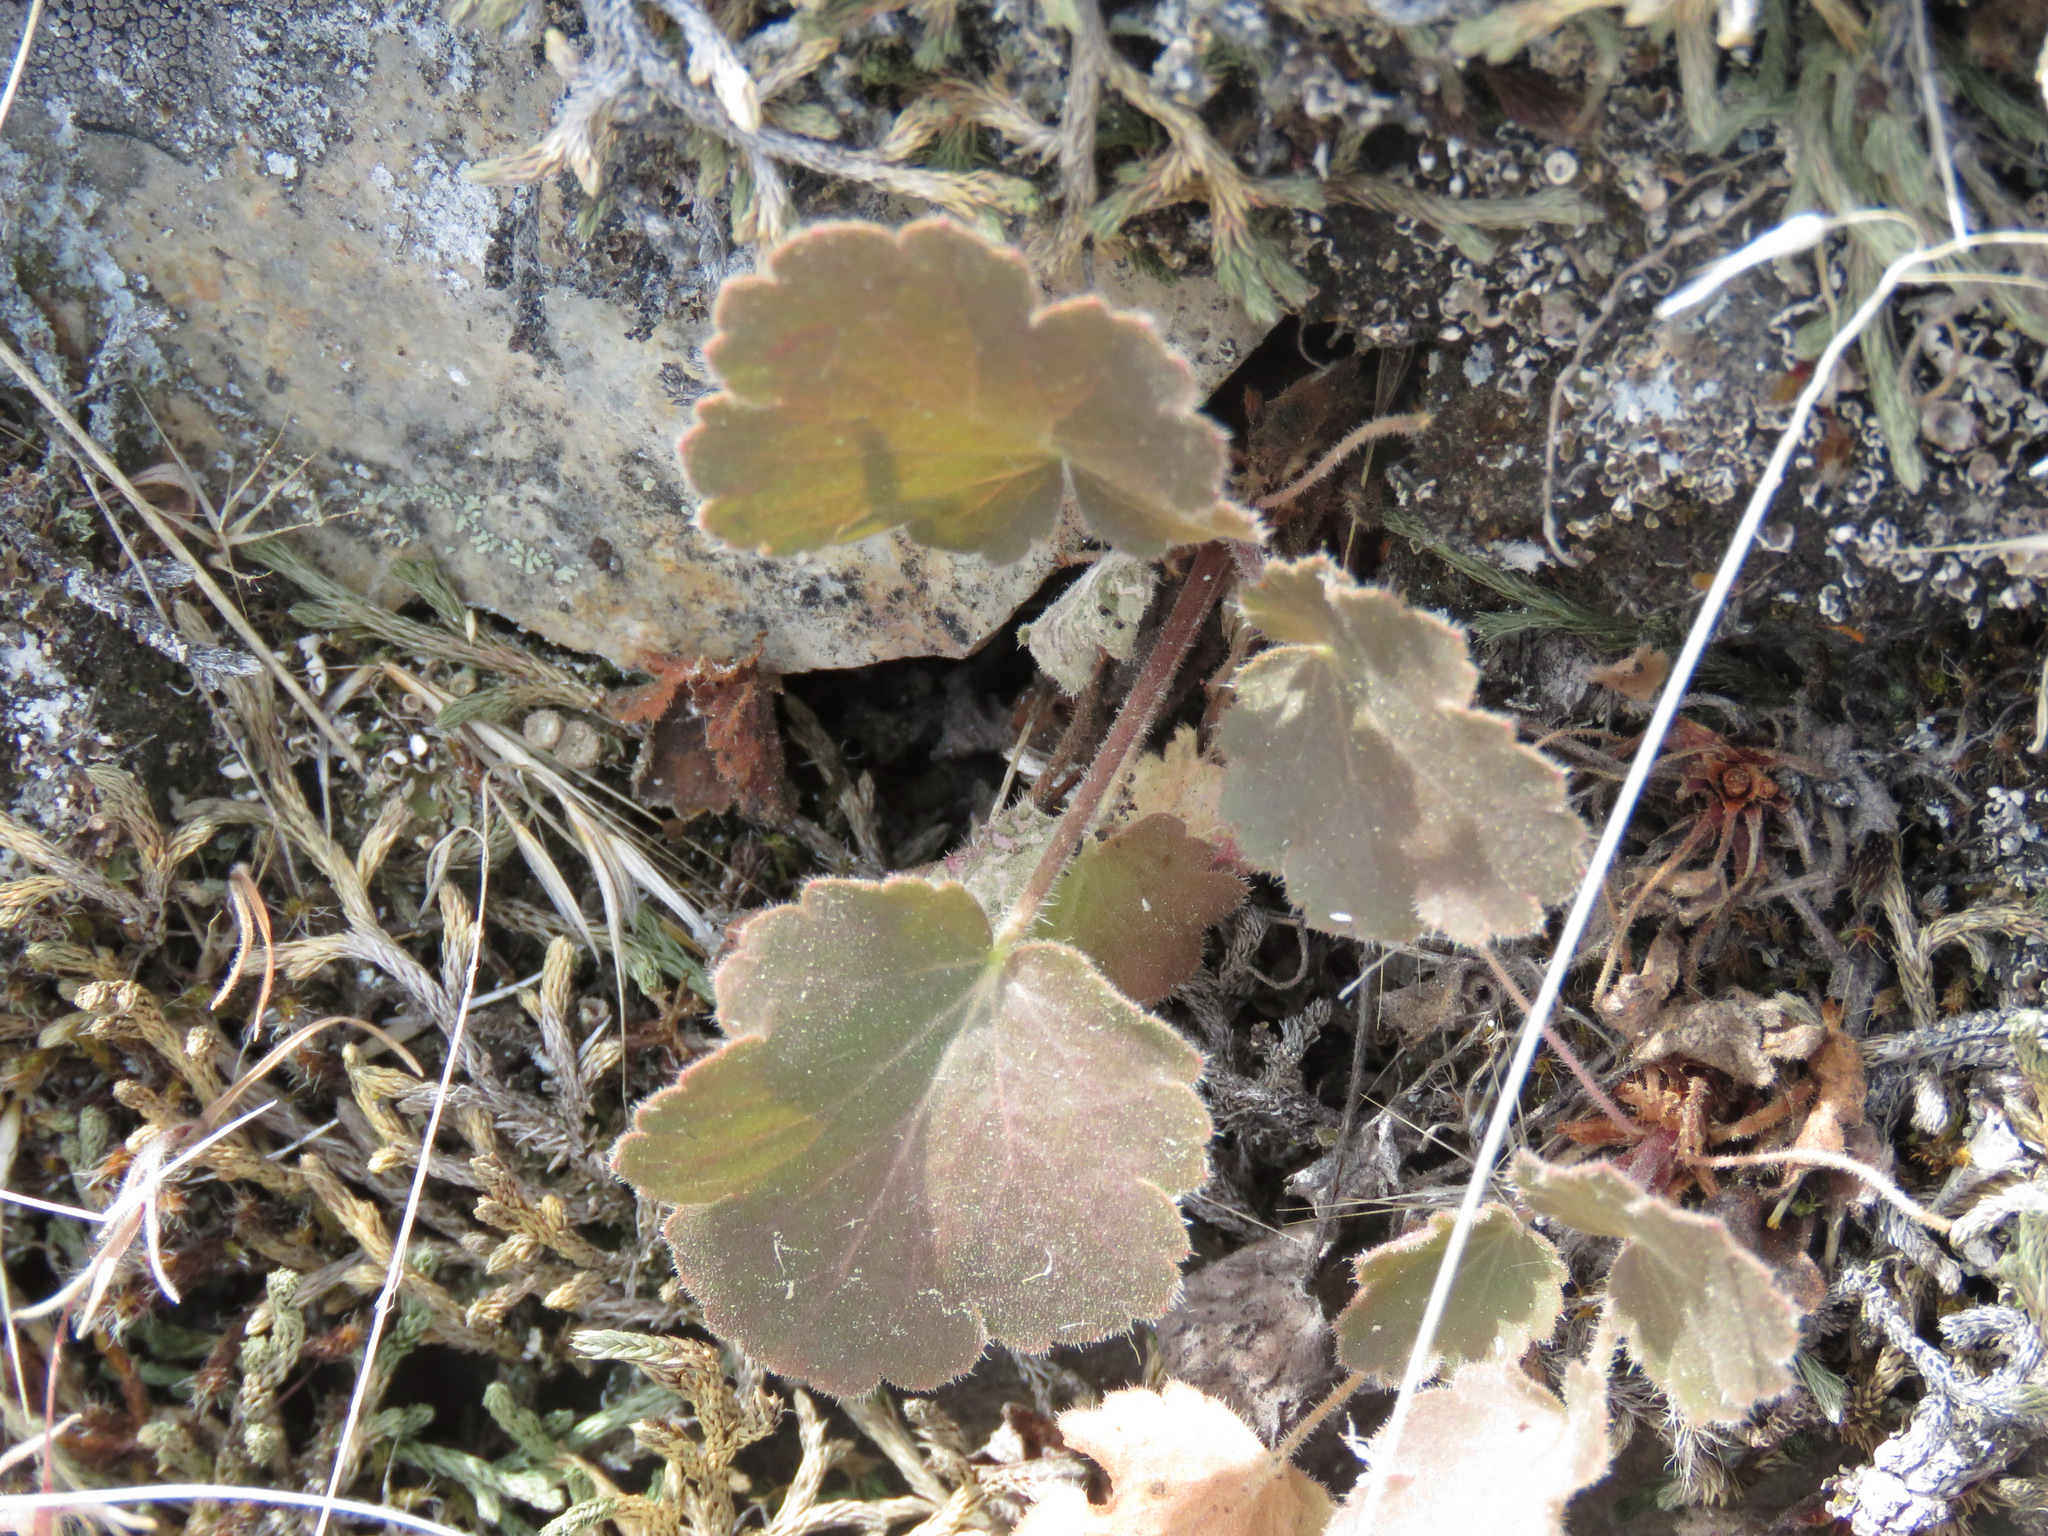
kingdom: Plantae
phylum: Tracheophyta
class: Magnoliopsida
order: Saxifragales
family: Saxifragaceae
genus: Heuchera
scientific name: Heuchera cylindrica
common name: Mat alumroot
